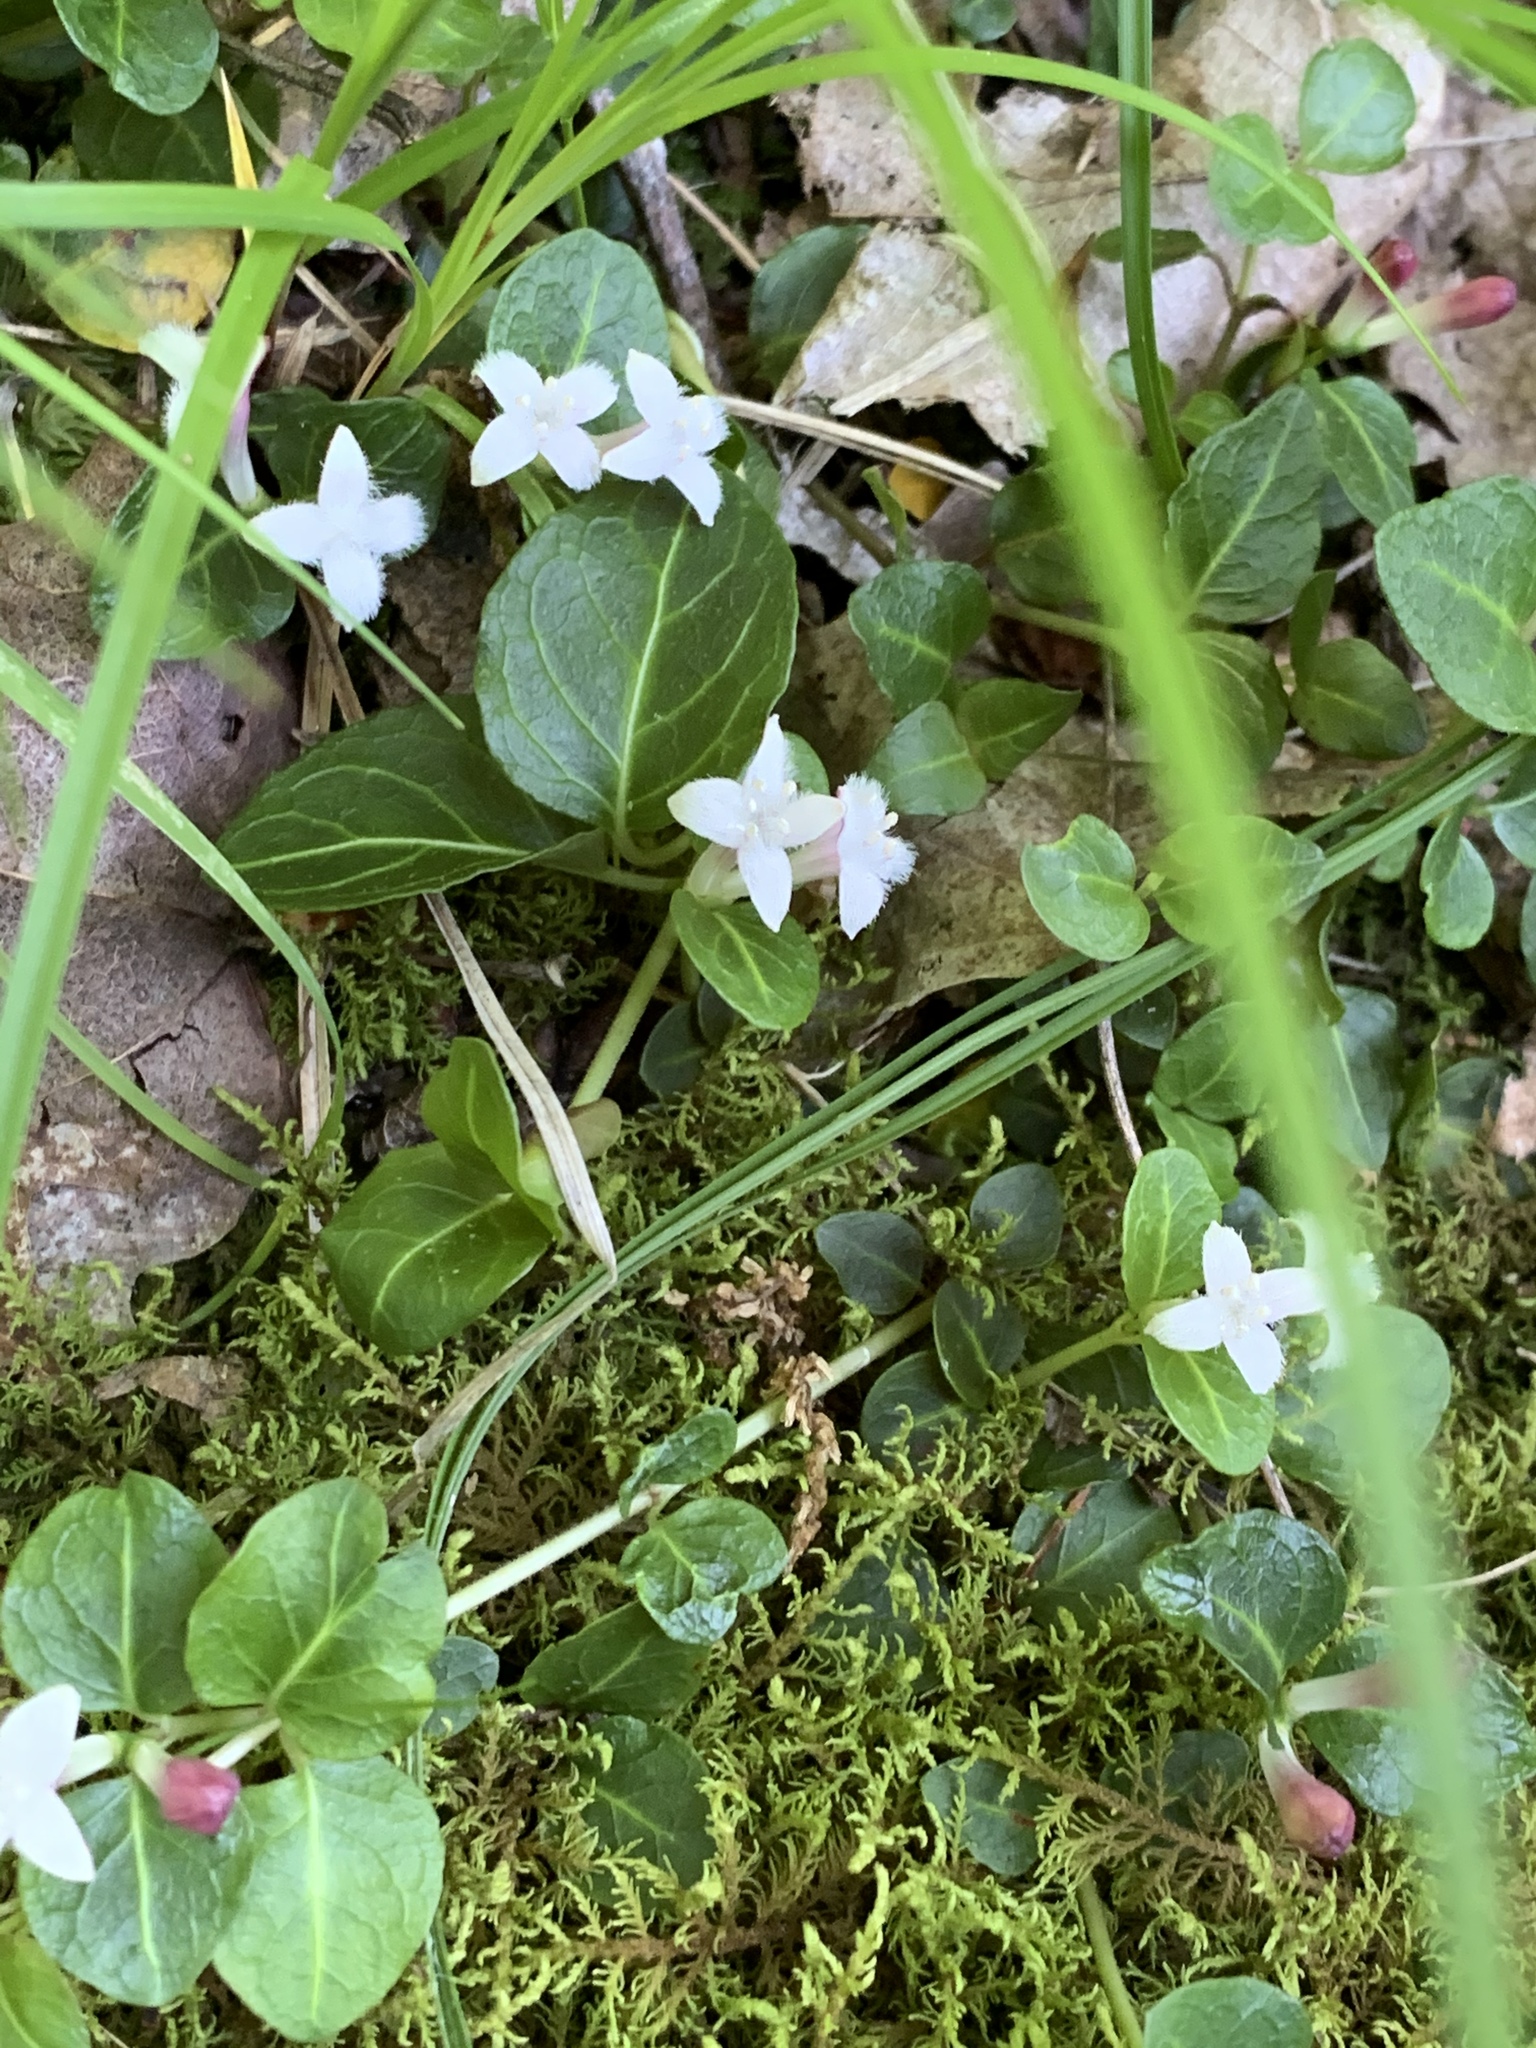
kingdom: Plantae
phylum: Tracheophyta
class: Magnoliopsida
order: Gentianales
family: Rubiaceae
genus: Mitchella
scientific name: Mitchella repens
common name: Partridge-berry
